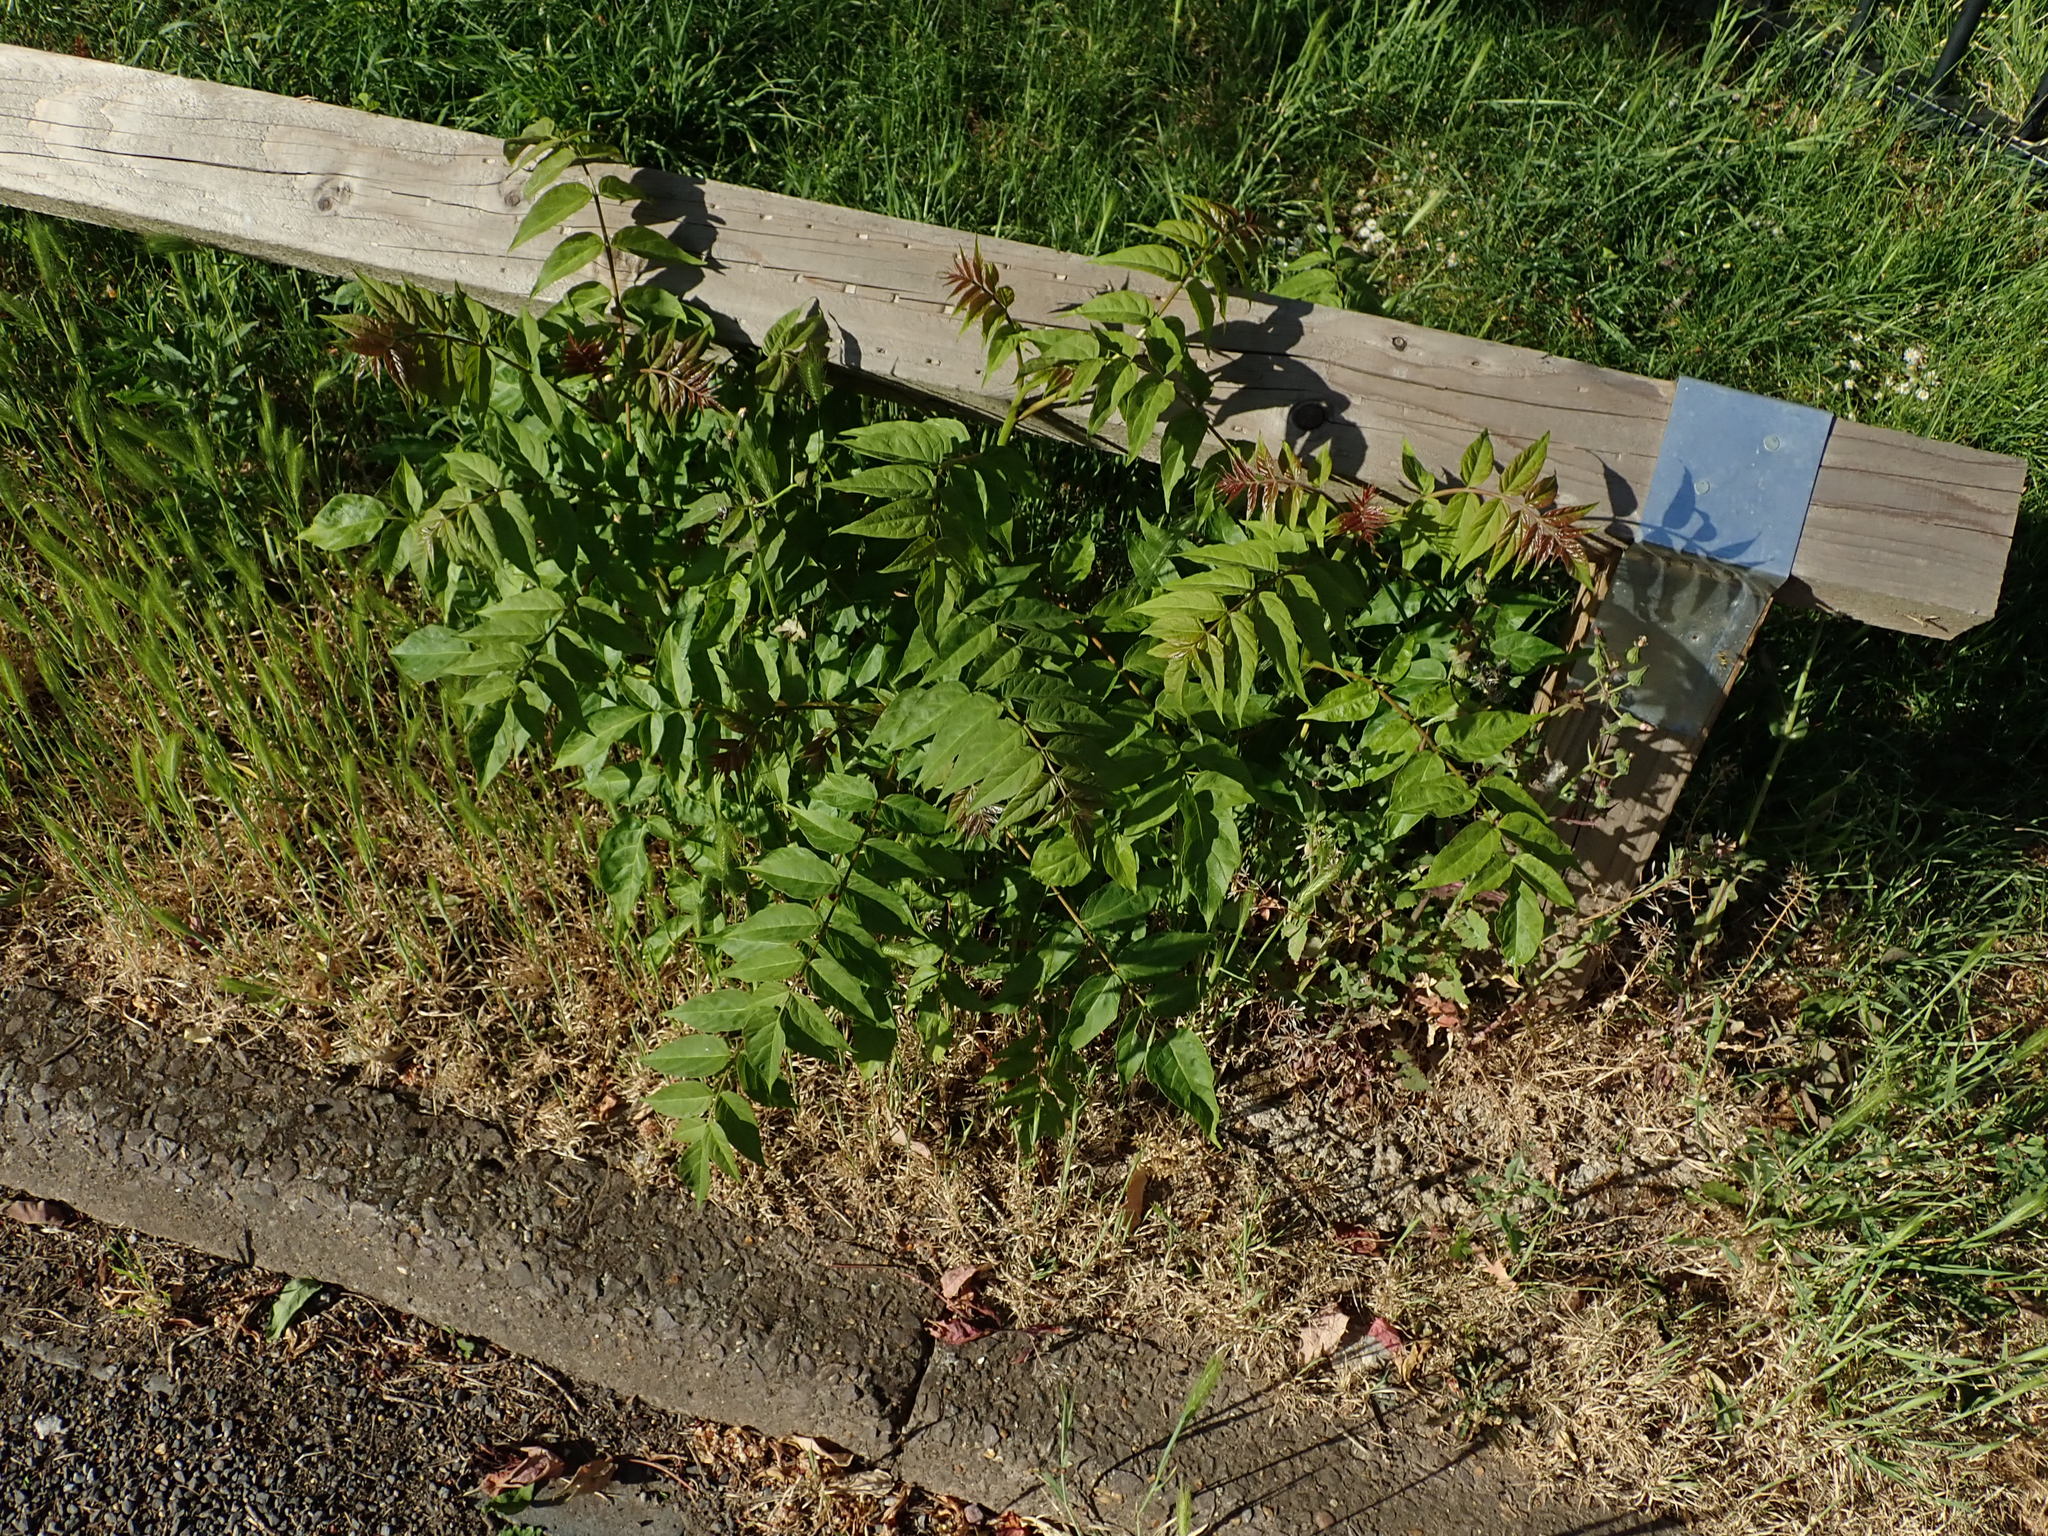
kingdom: Plantae
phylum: Tracheophyta
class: Magnoliopsida
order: Sapindales
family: Simaroubaceae
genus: Ailanthus
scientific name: Ailanthus altissima
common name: Tree-of-heaven
